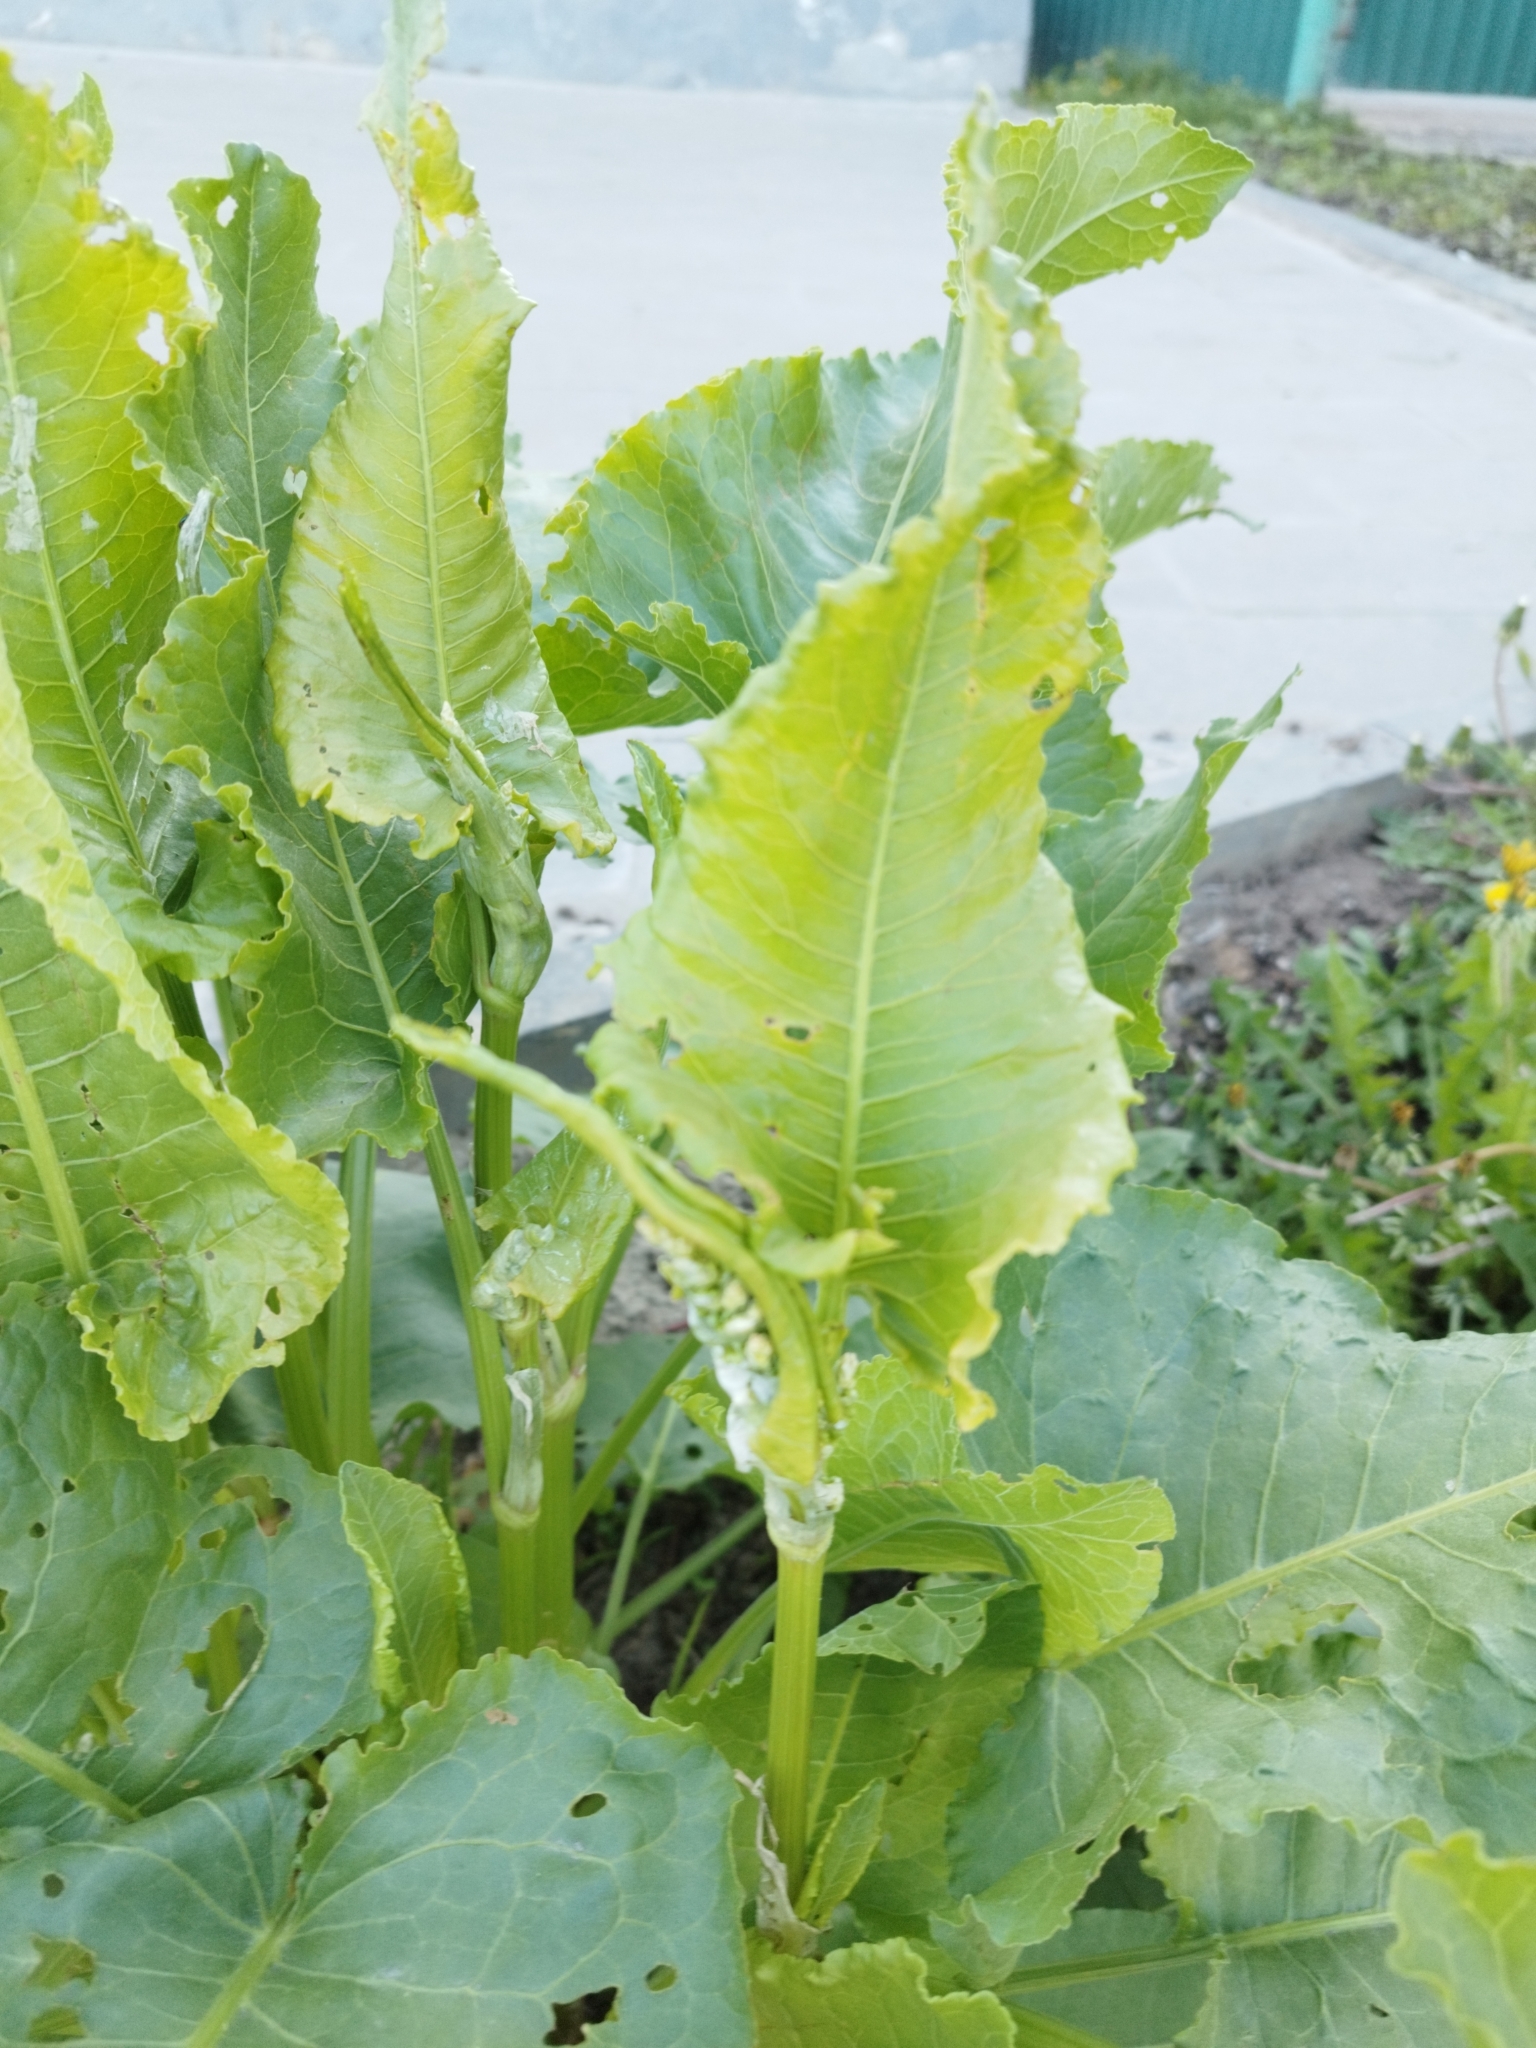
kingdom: Plantae
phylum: Tracheophyta
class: Magnoliopsida
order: Caryophyllales
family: Polygonaceae
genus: Rumex
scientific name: Rumex confertus
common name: Russian dock
